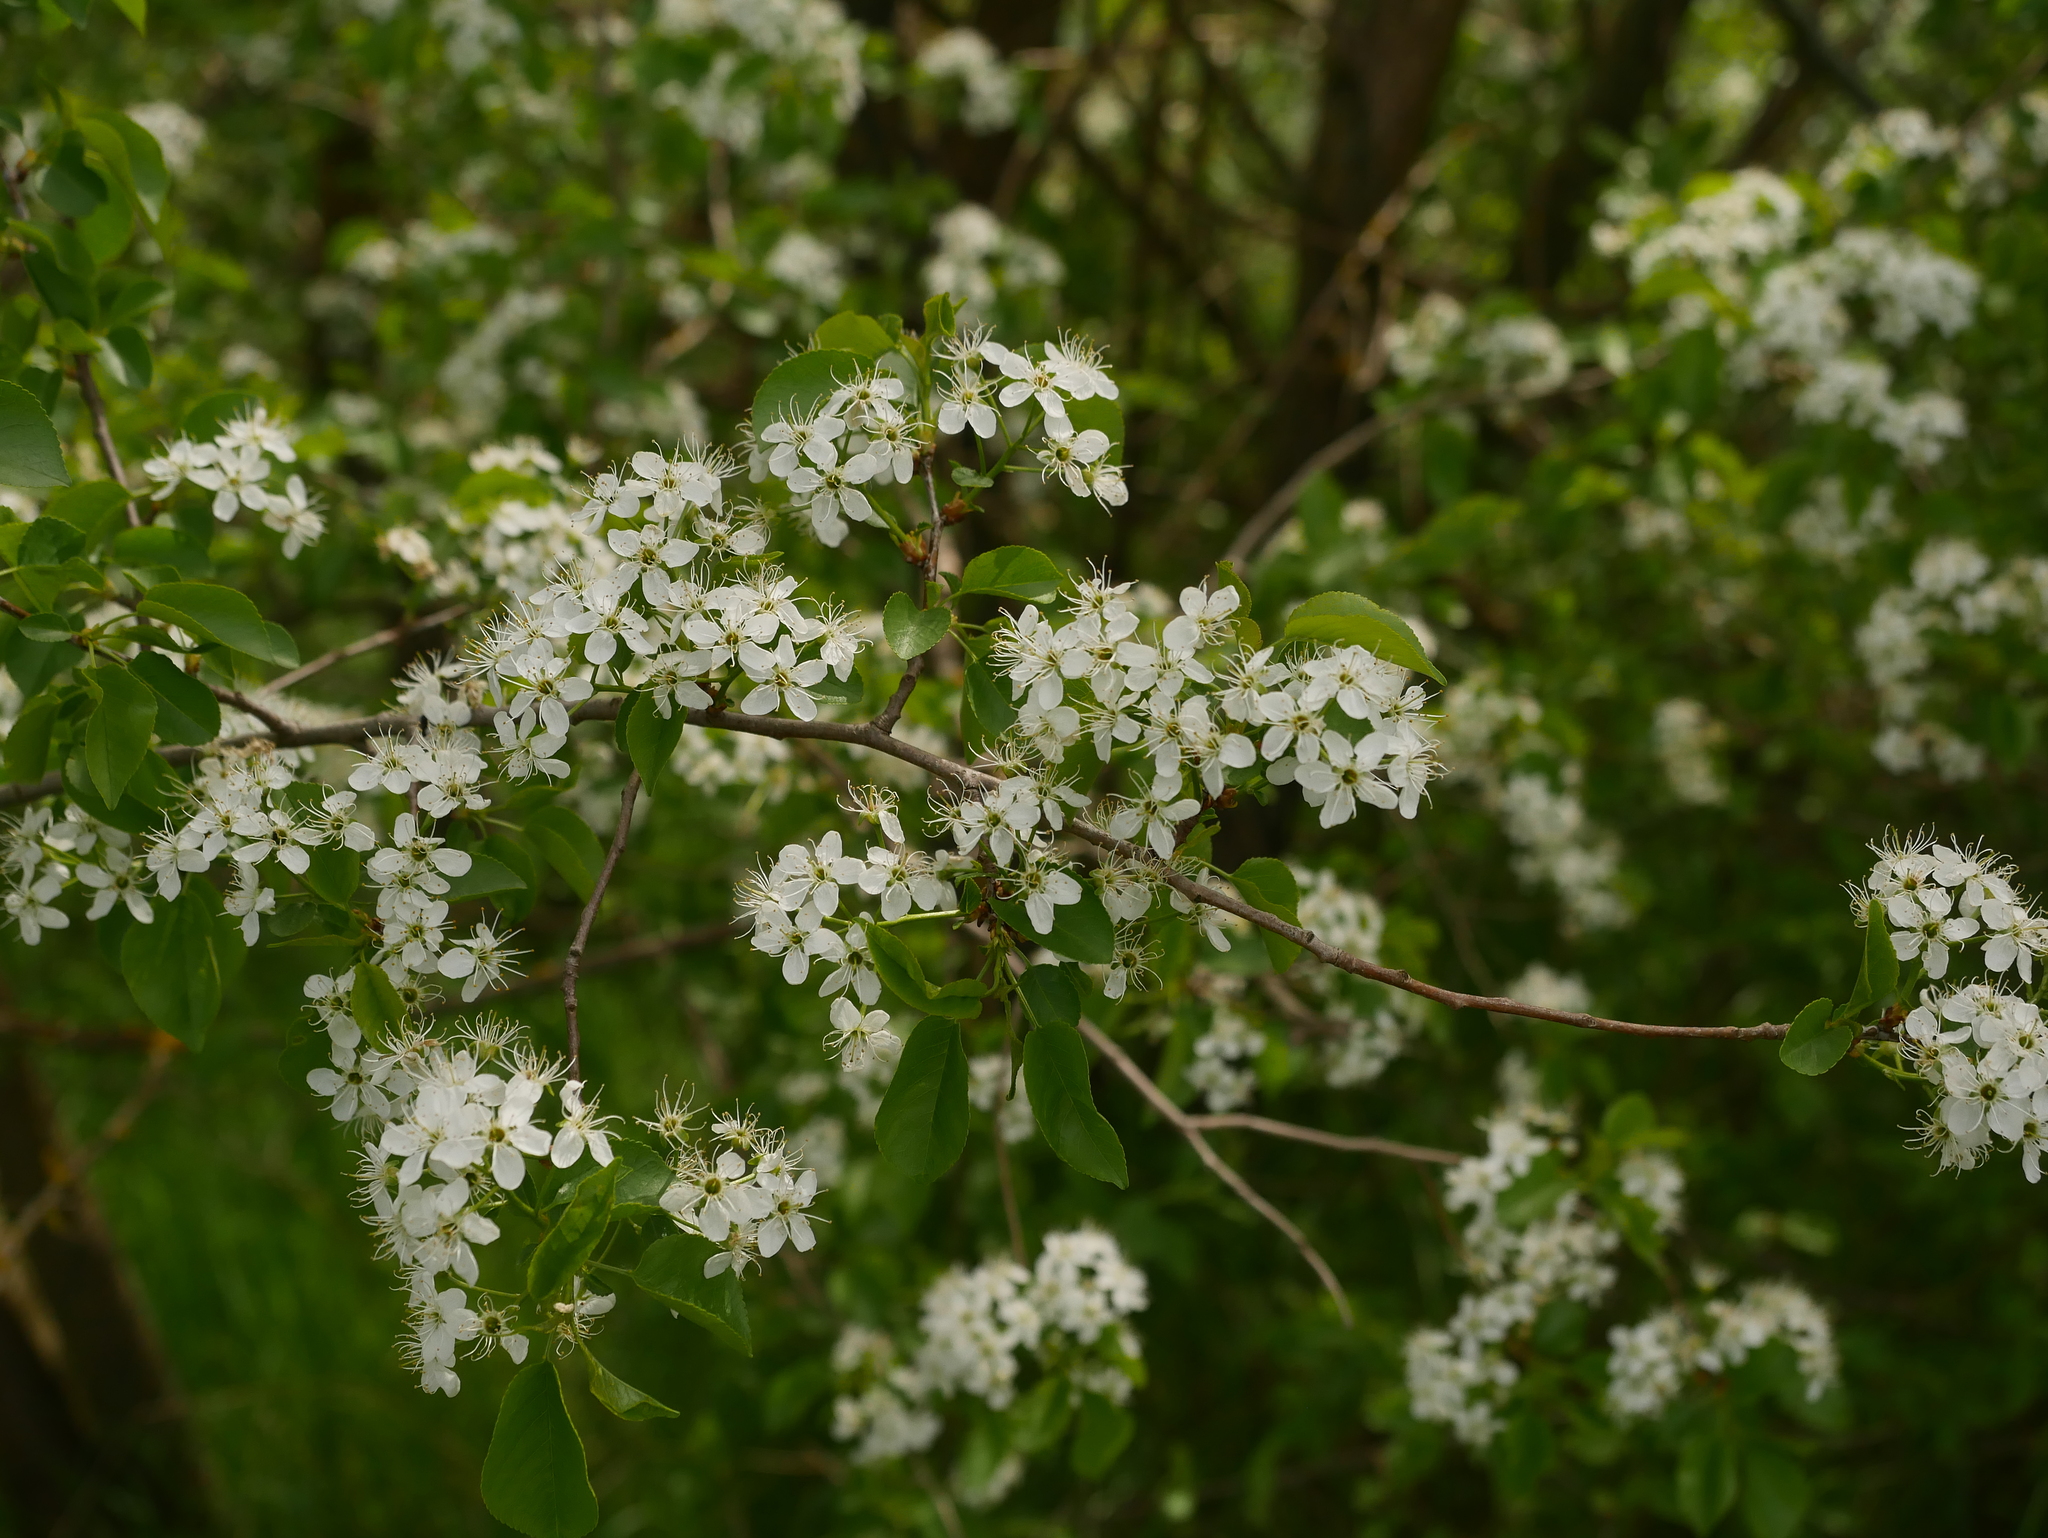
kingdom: Plantae
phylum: Tracheophyta
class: Magnoliopsida
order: Rosales
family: Rosaceae
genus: Prunus
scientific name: Prunus mahaleb
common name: Mahaleb cherry
